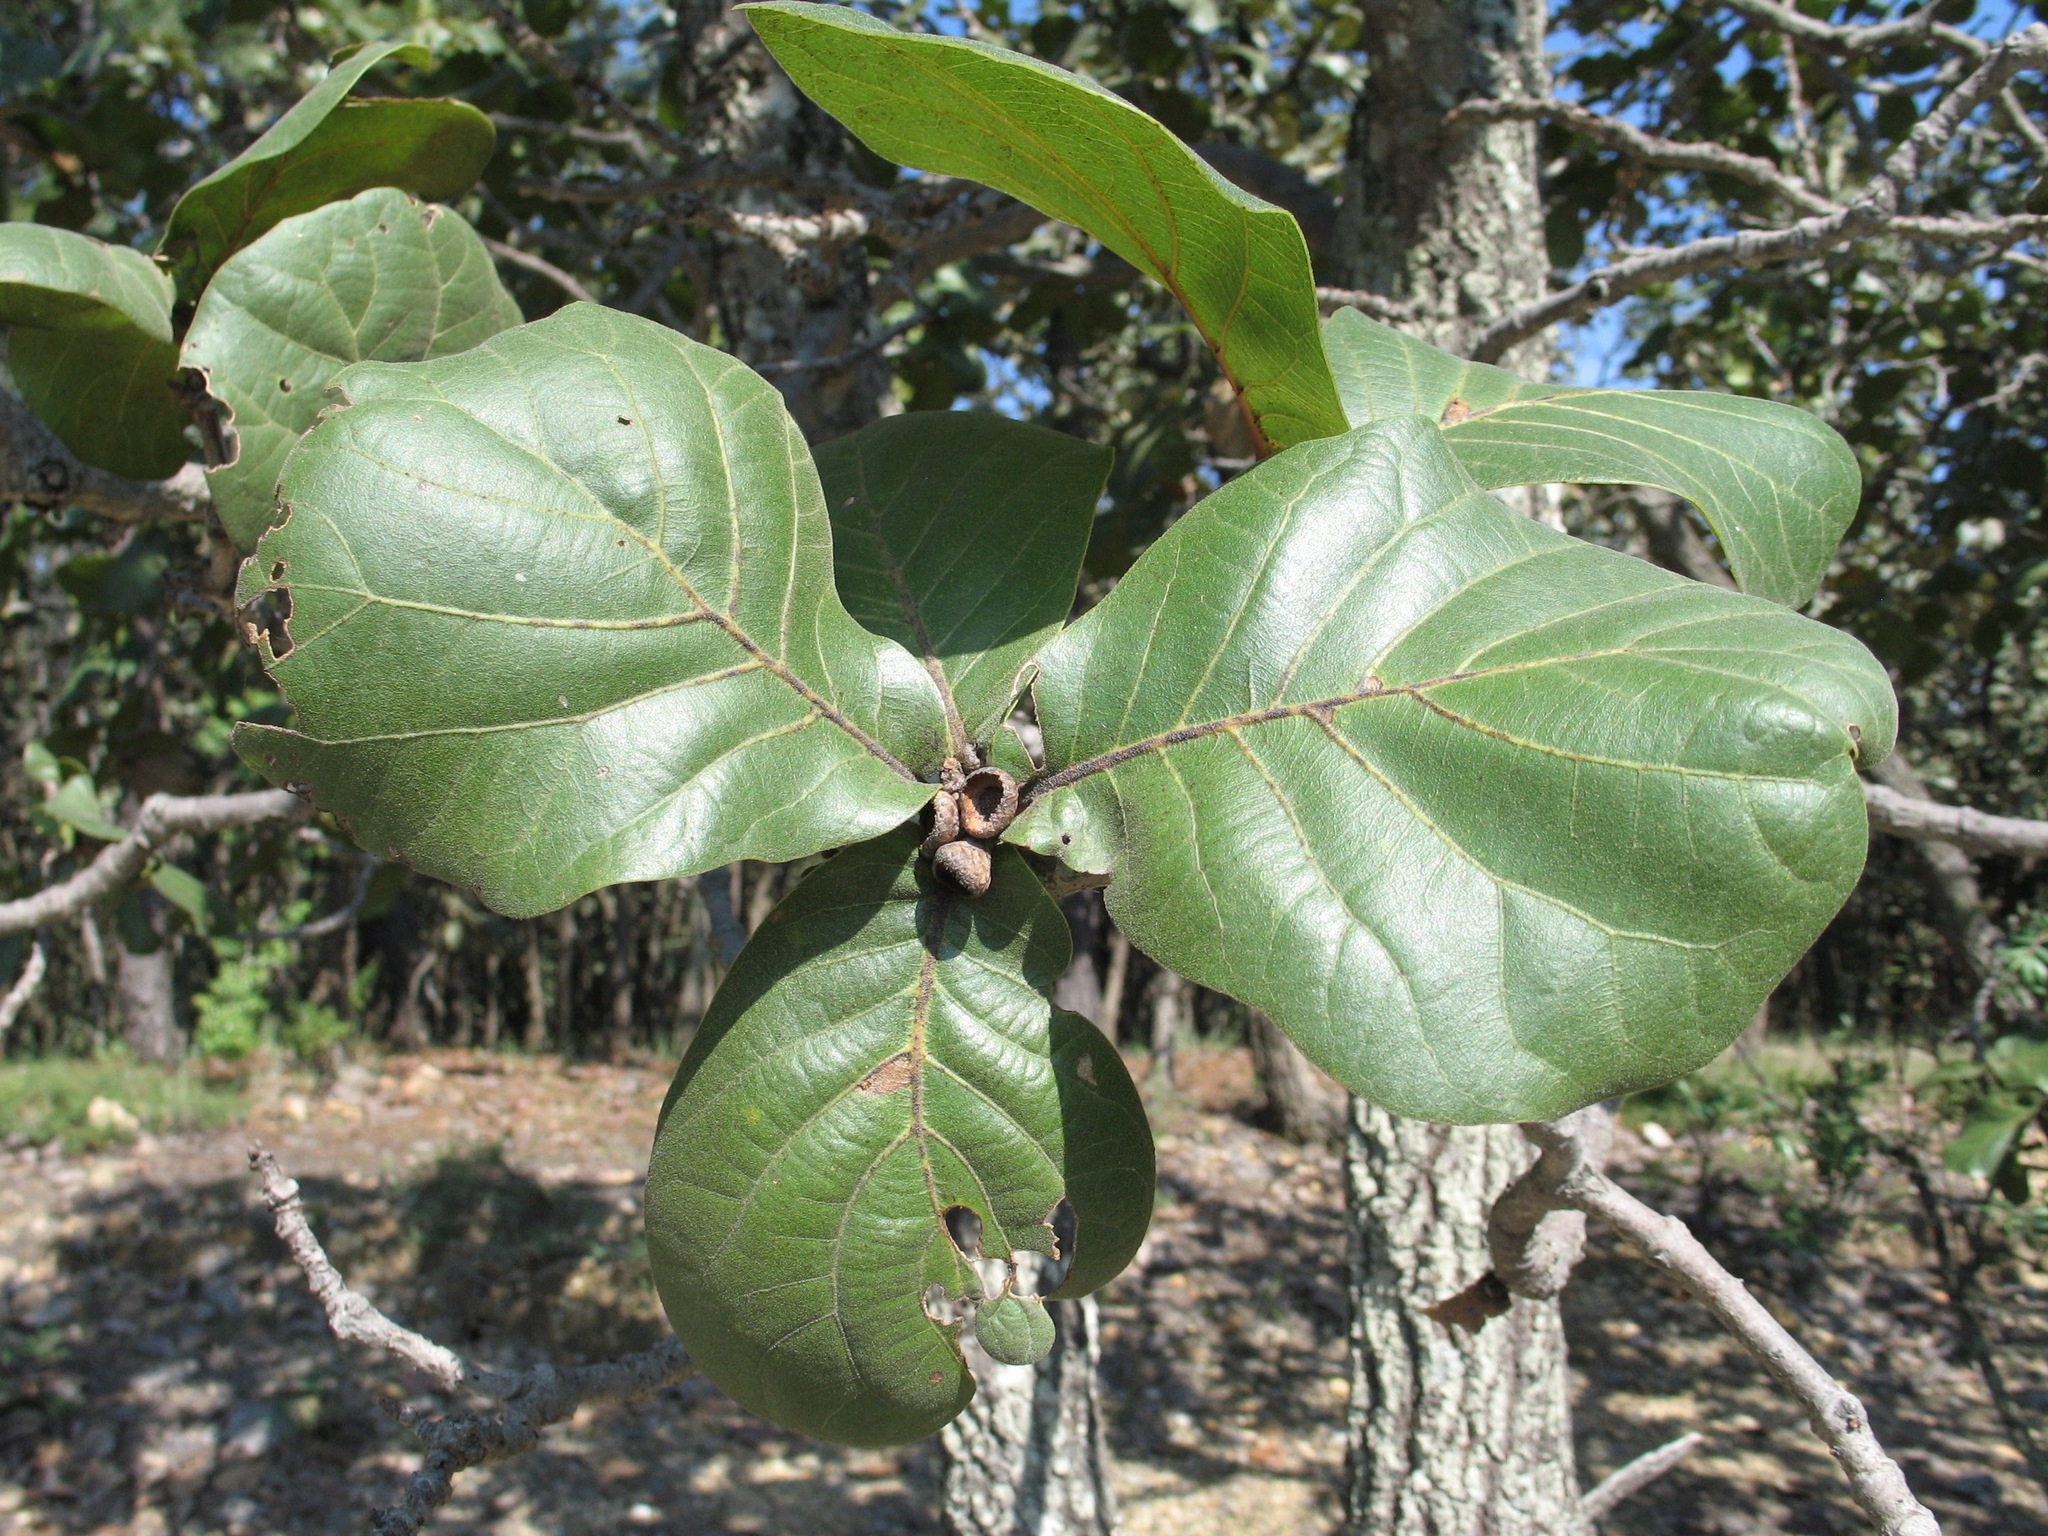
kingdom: Plantae
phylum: Tracheophyta
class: Magnoliopsida
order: Fagales
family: Fagaceae
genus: Quercus
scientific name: Quercus jonesii
